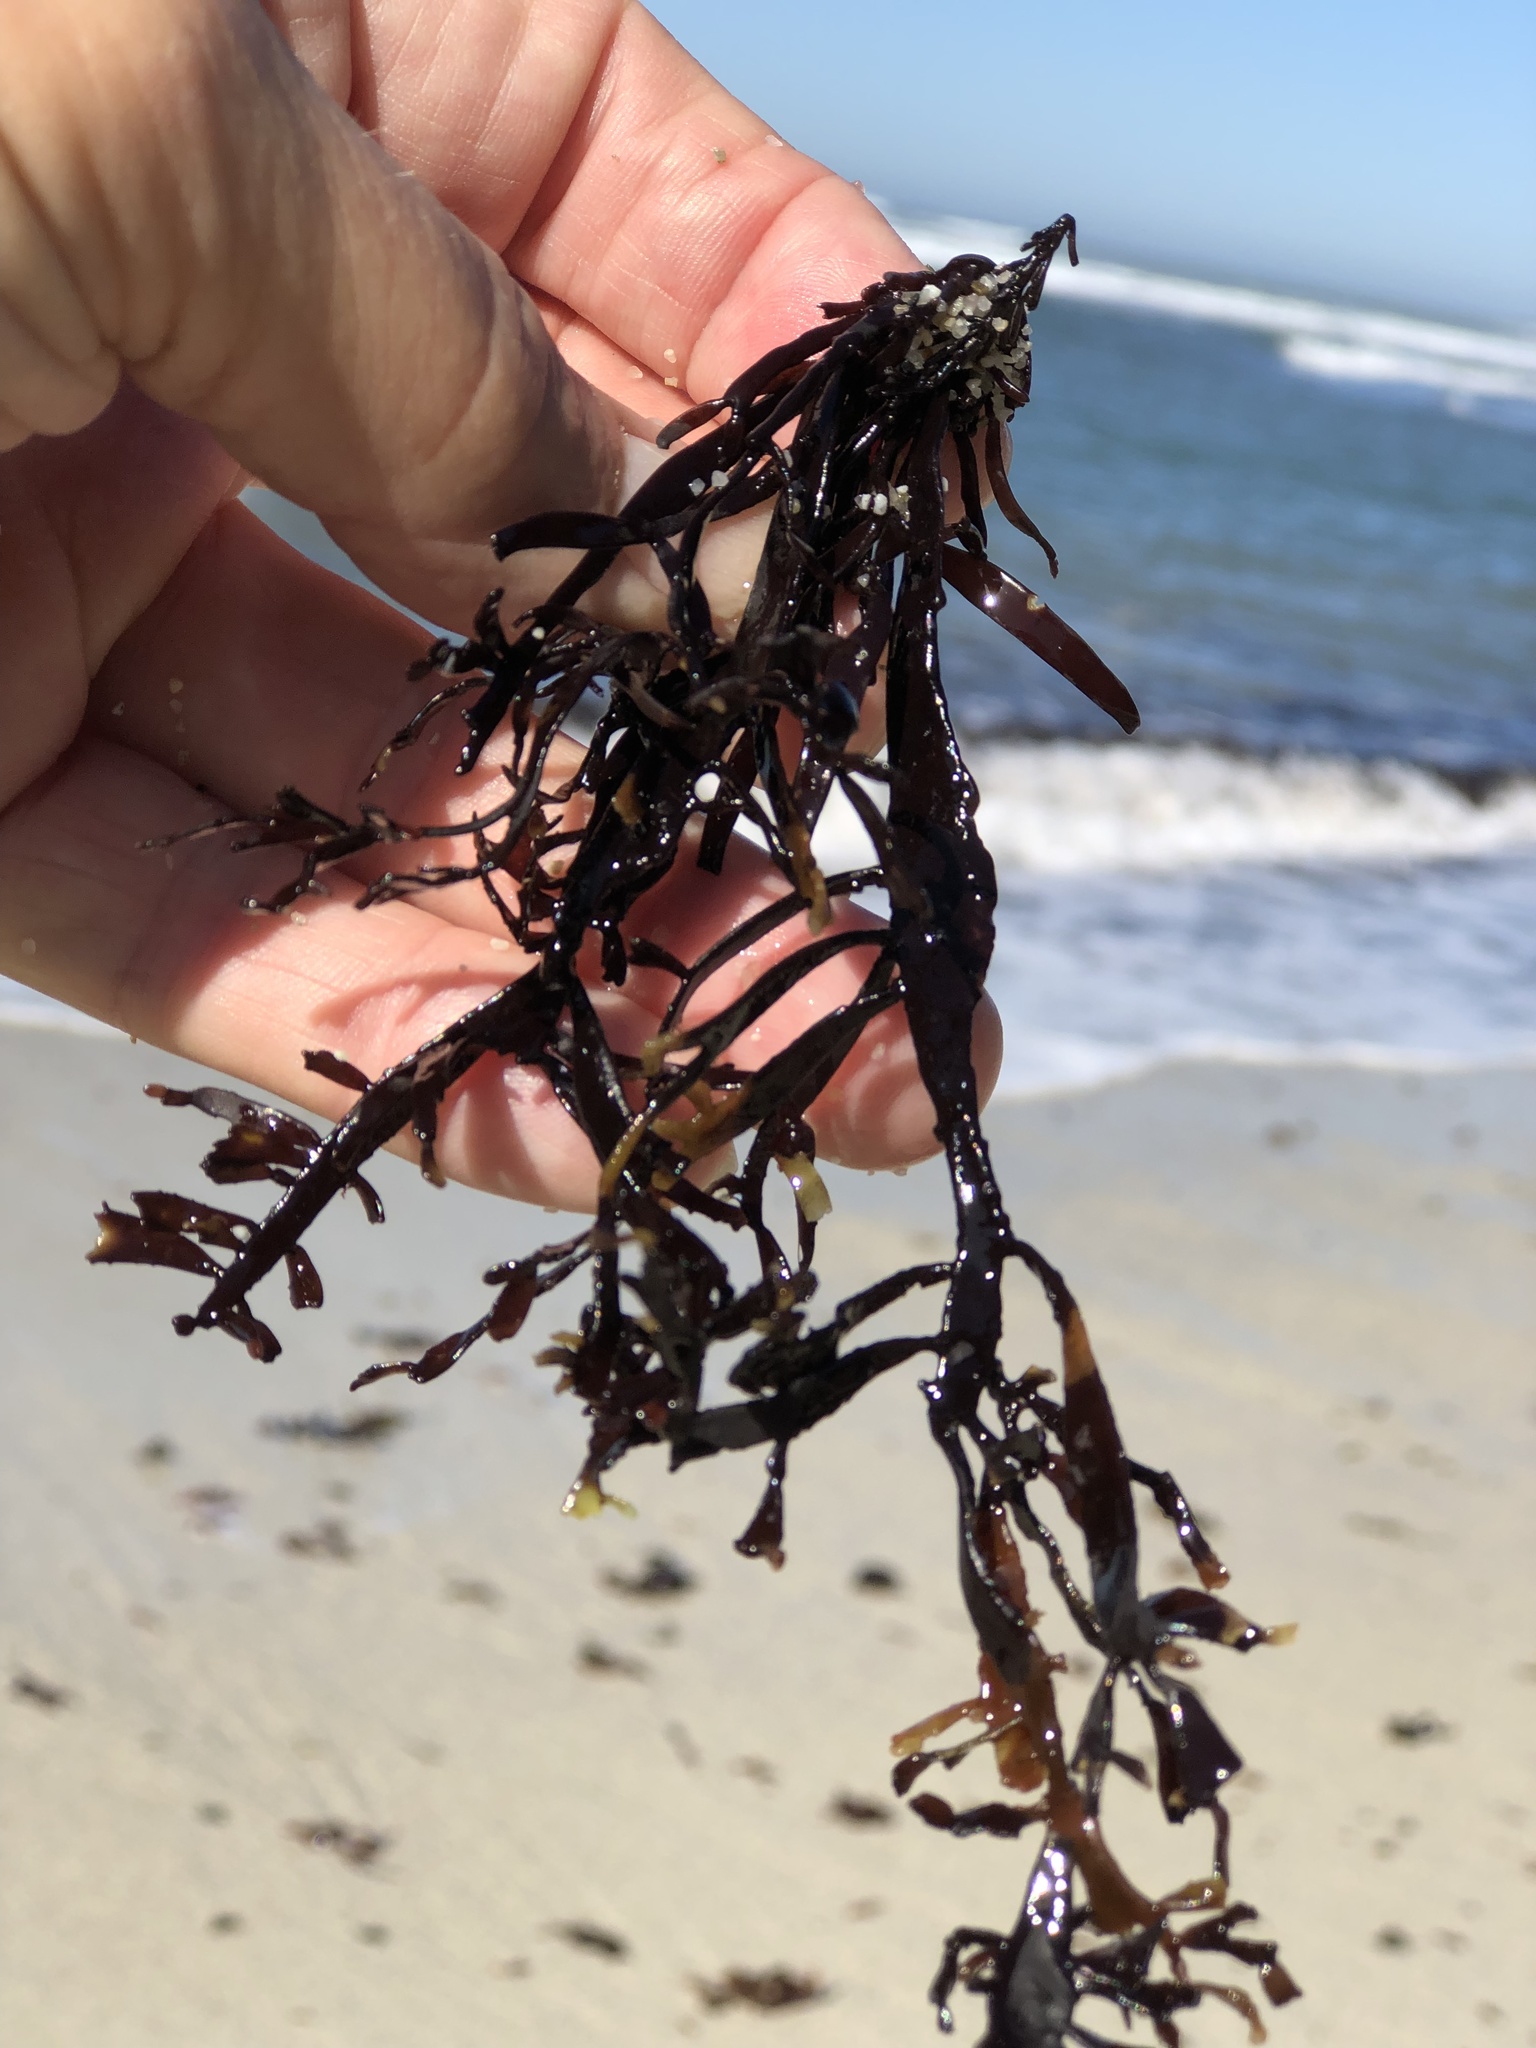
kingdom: Plantae
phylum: Rhodophyta
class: Florideophyceae
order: Halymeniales
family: Halymeniaceae
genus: Grateloupia
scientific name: Grateloupia Prionitis lanceolata
